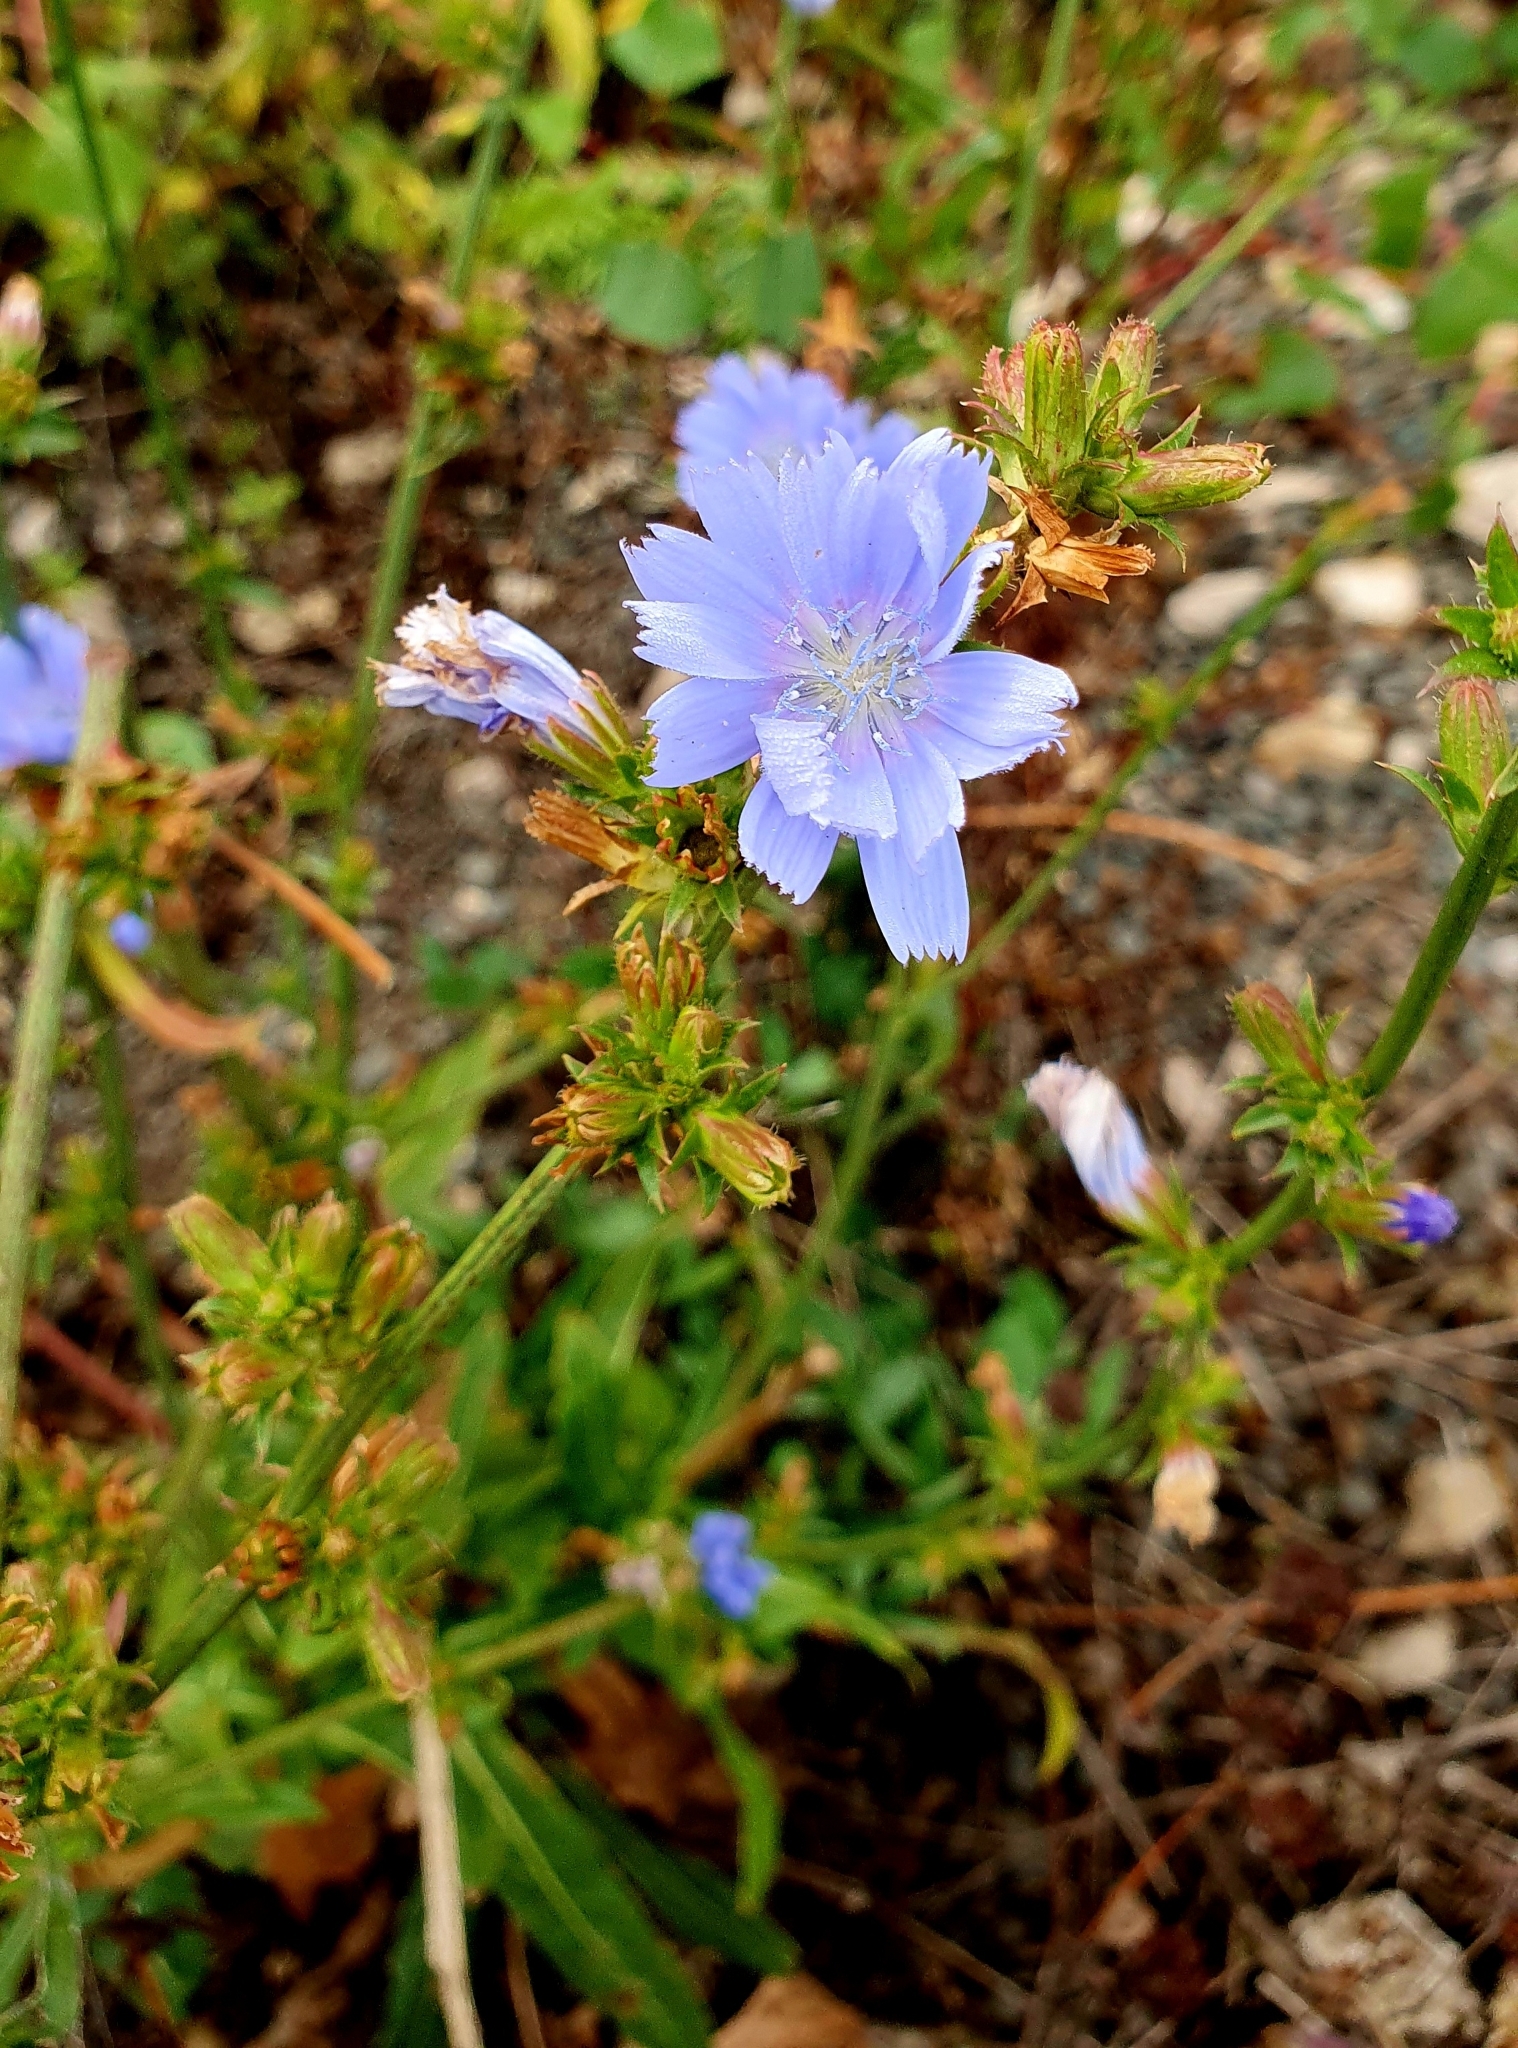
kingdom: Plantae
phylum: Tracheophyta
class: Magnoliopsida
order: Asterales
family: Asteraceae
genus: Cichorium
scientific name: Cichorium intybus
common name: Chicory
